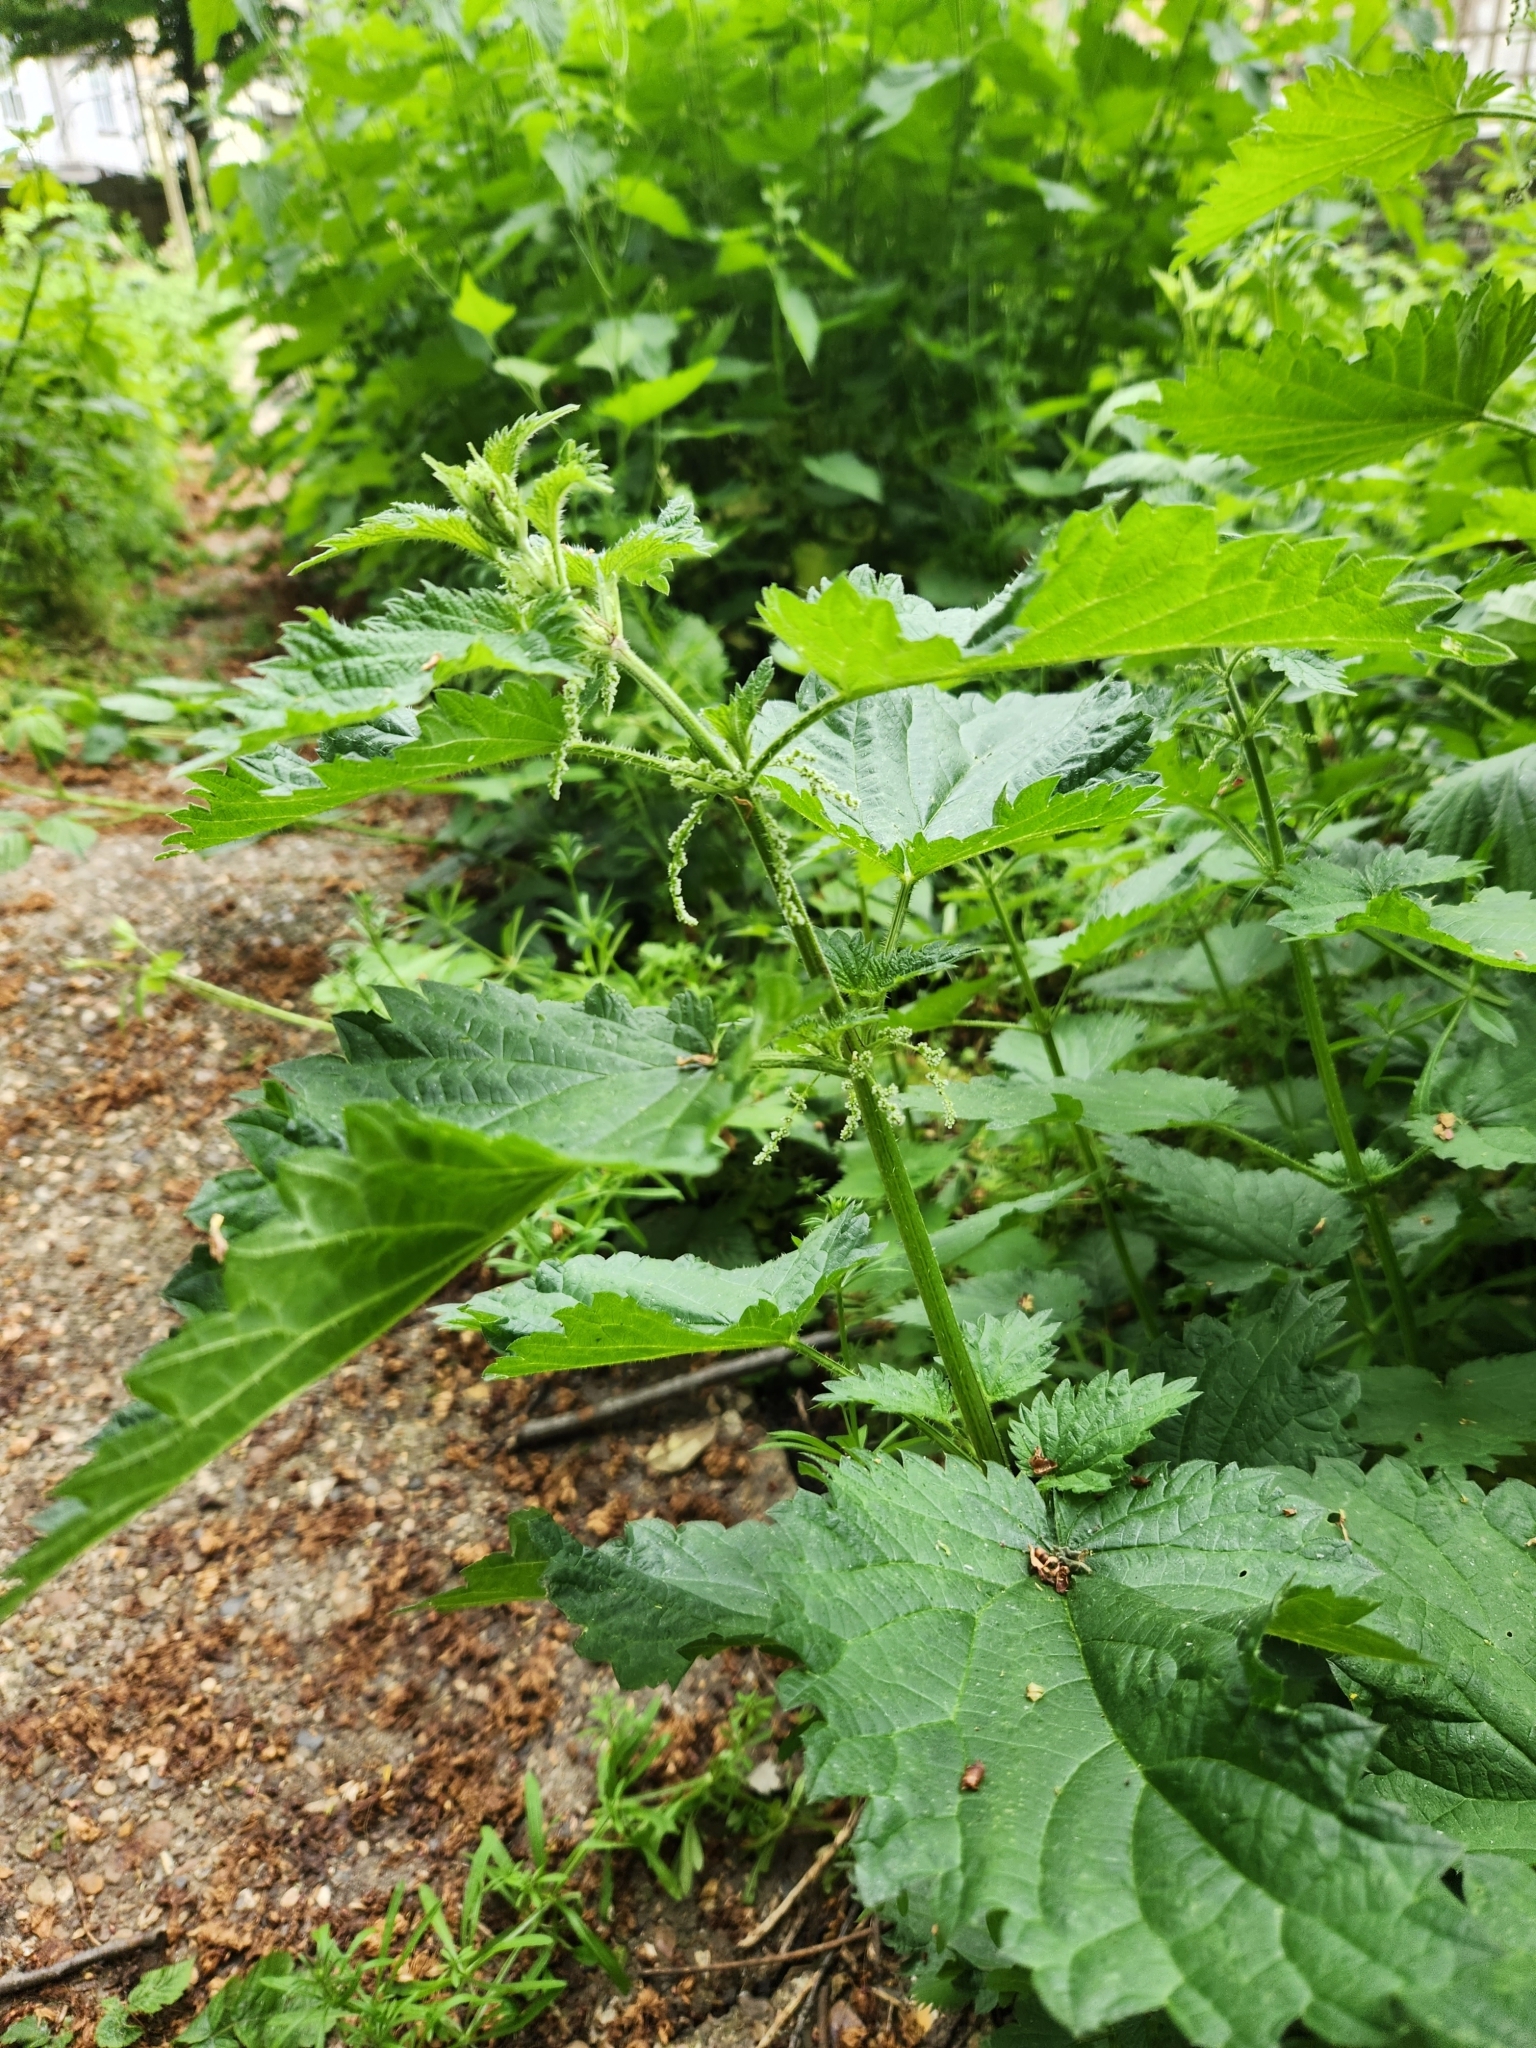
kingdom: Plantae
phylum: Tracheophyta
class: Magnoliopsida
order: Rosales
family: Urticaceae
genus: Urtica
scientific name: Urtica dioica
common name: Common nettle
